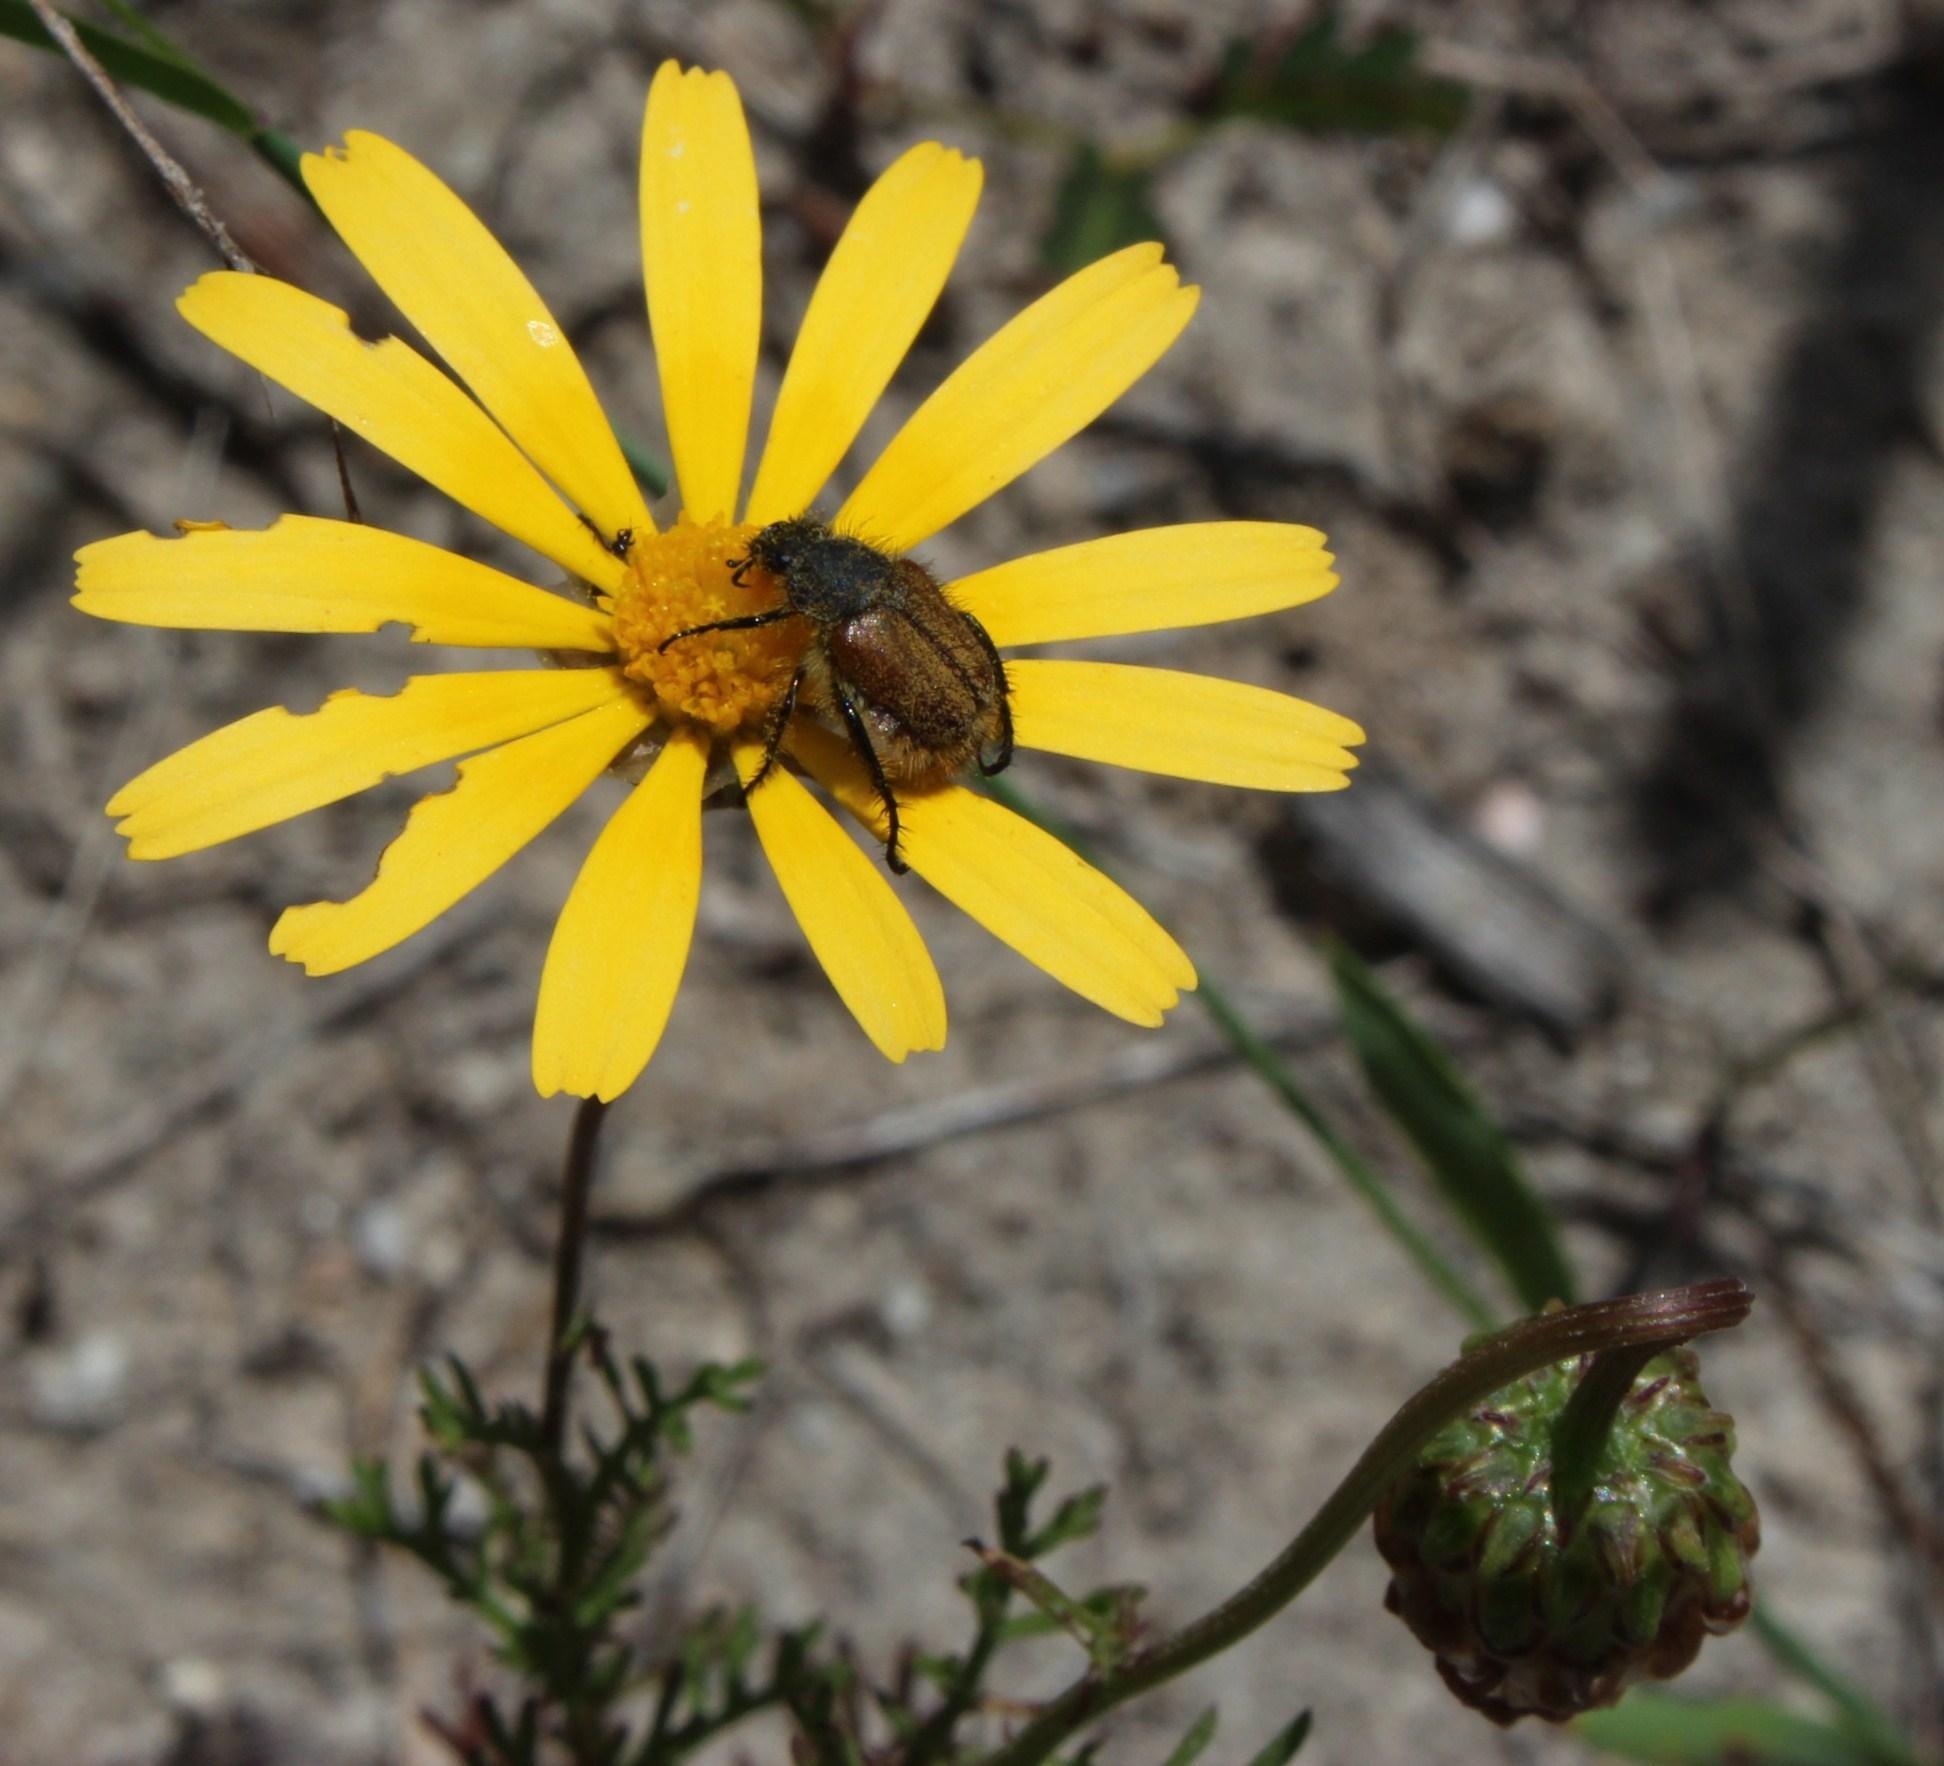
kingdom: Plantae
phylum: Tracheophyta
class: Magnoliopsida
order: Asterales
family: Asteraceae
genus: Ursinia
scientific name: Ursinia anthemoides
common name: Ursinia
